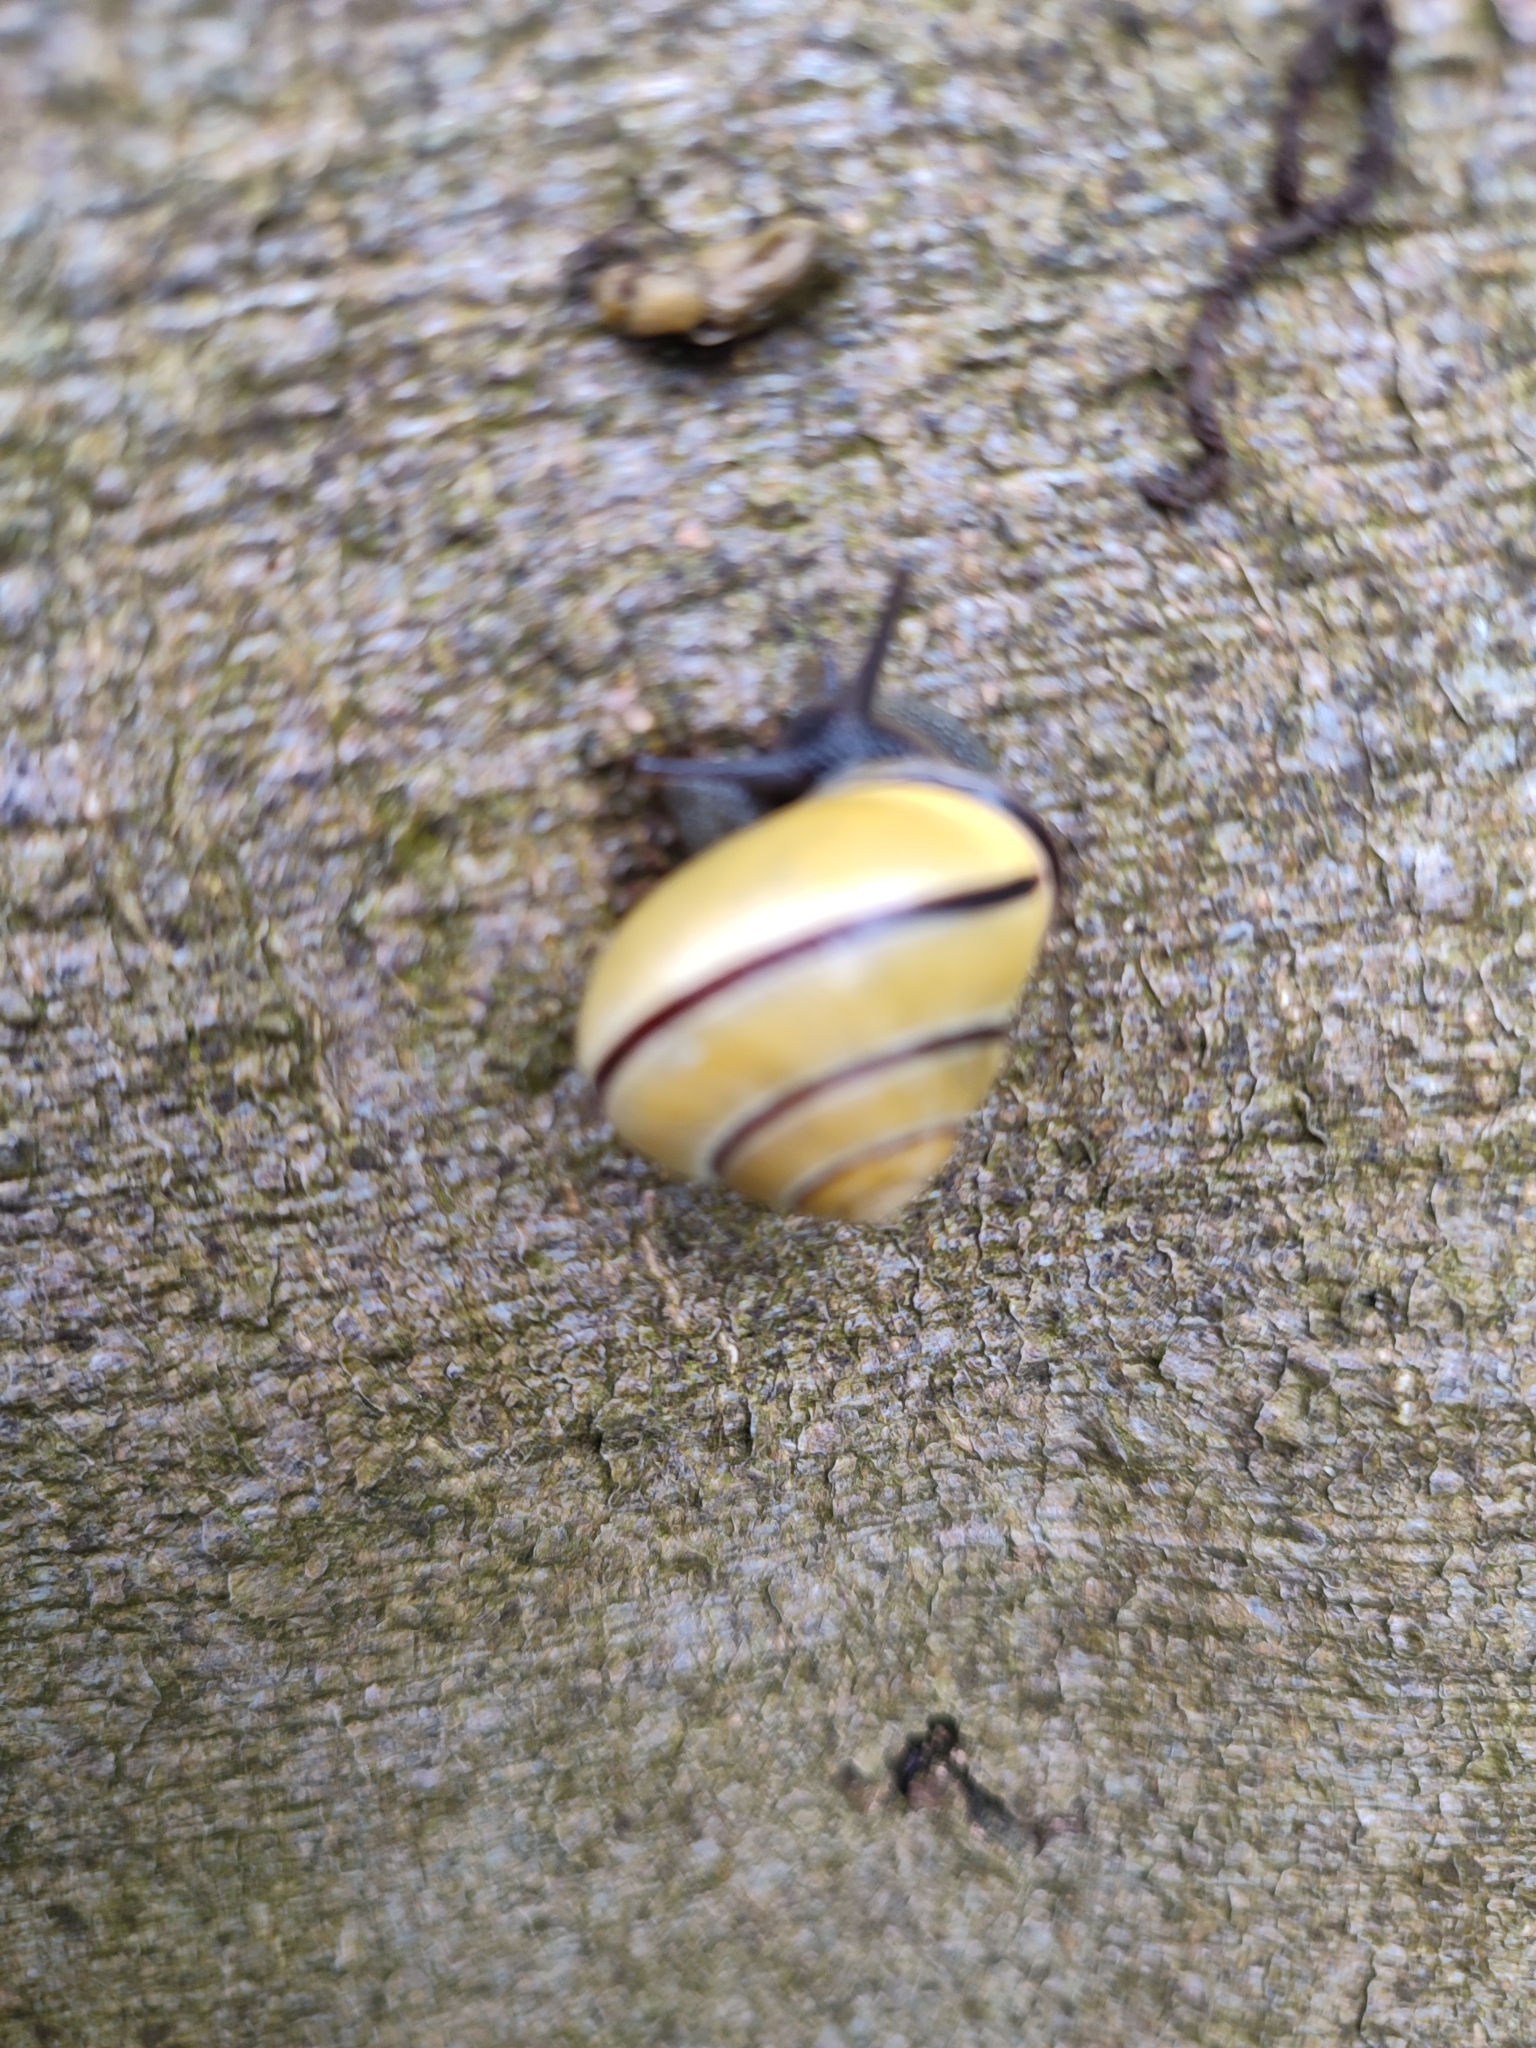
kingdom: Animalia
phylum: Mollusca
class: Gastropoda
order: Stylommatophora
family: Helicidae
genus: Cepaea
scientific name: Cepaea nemoralis
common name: Grovesnail
